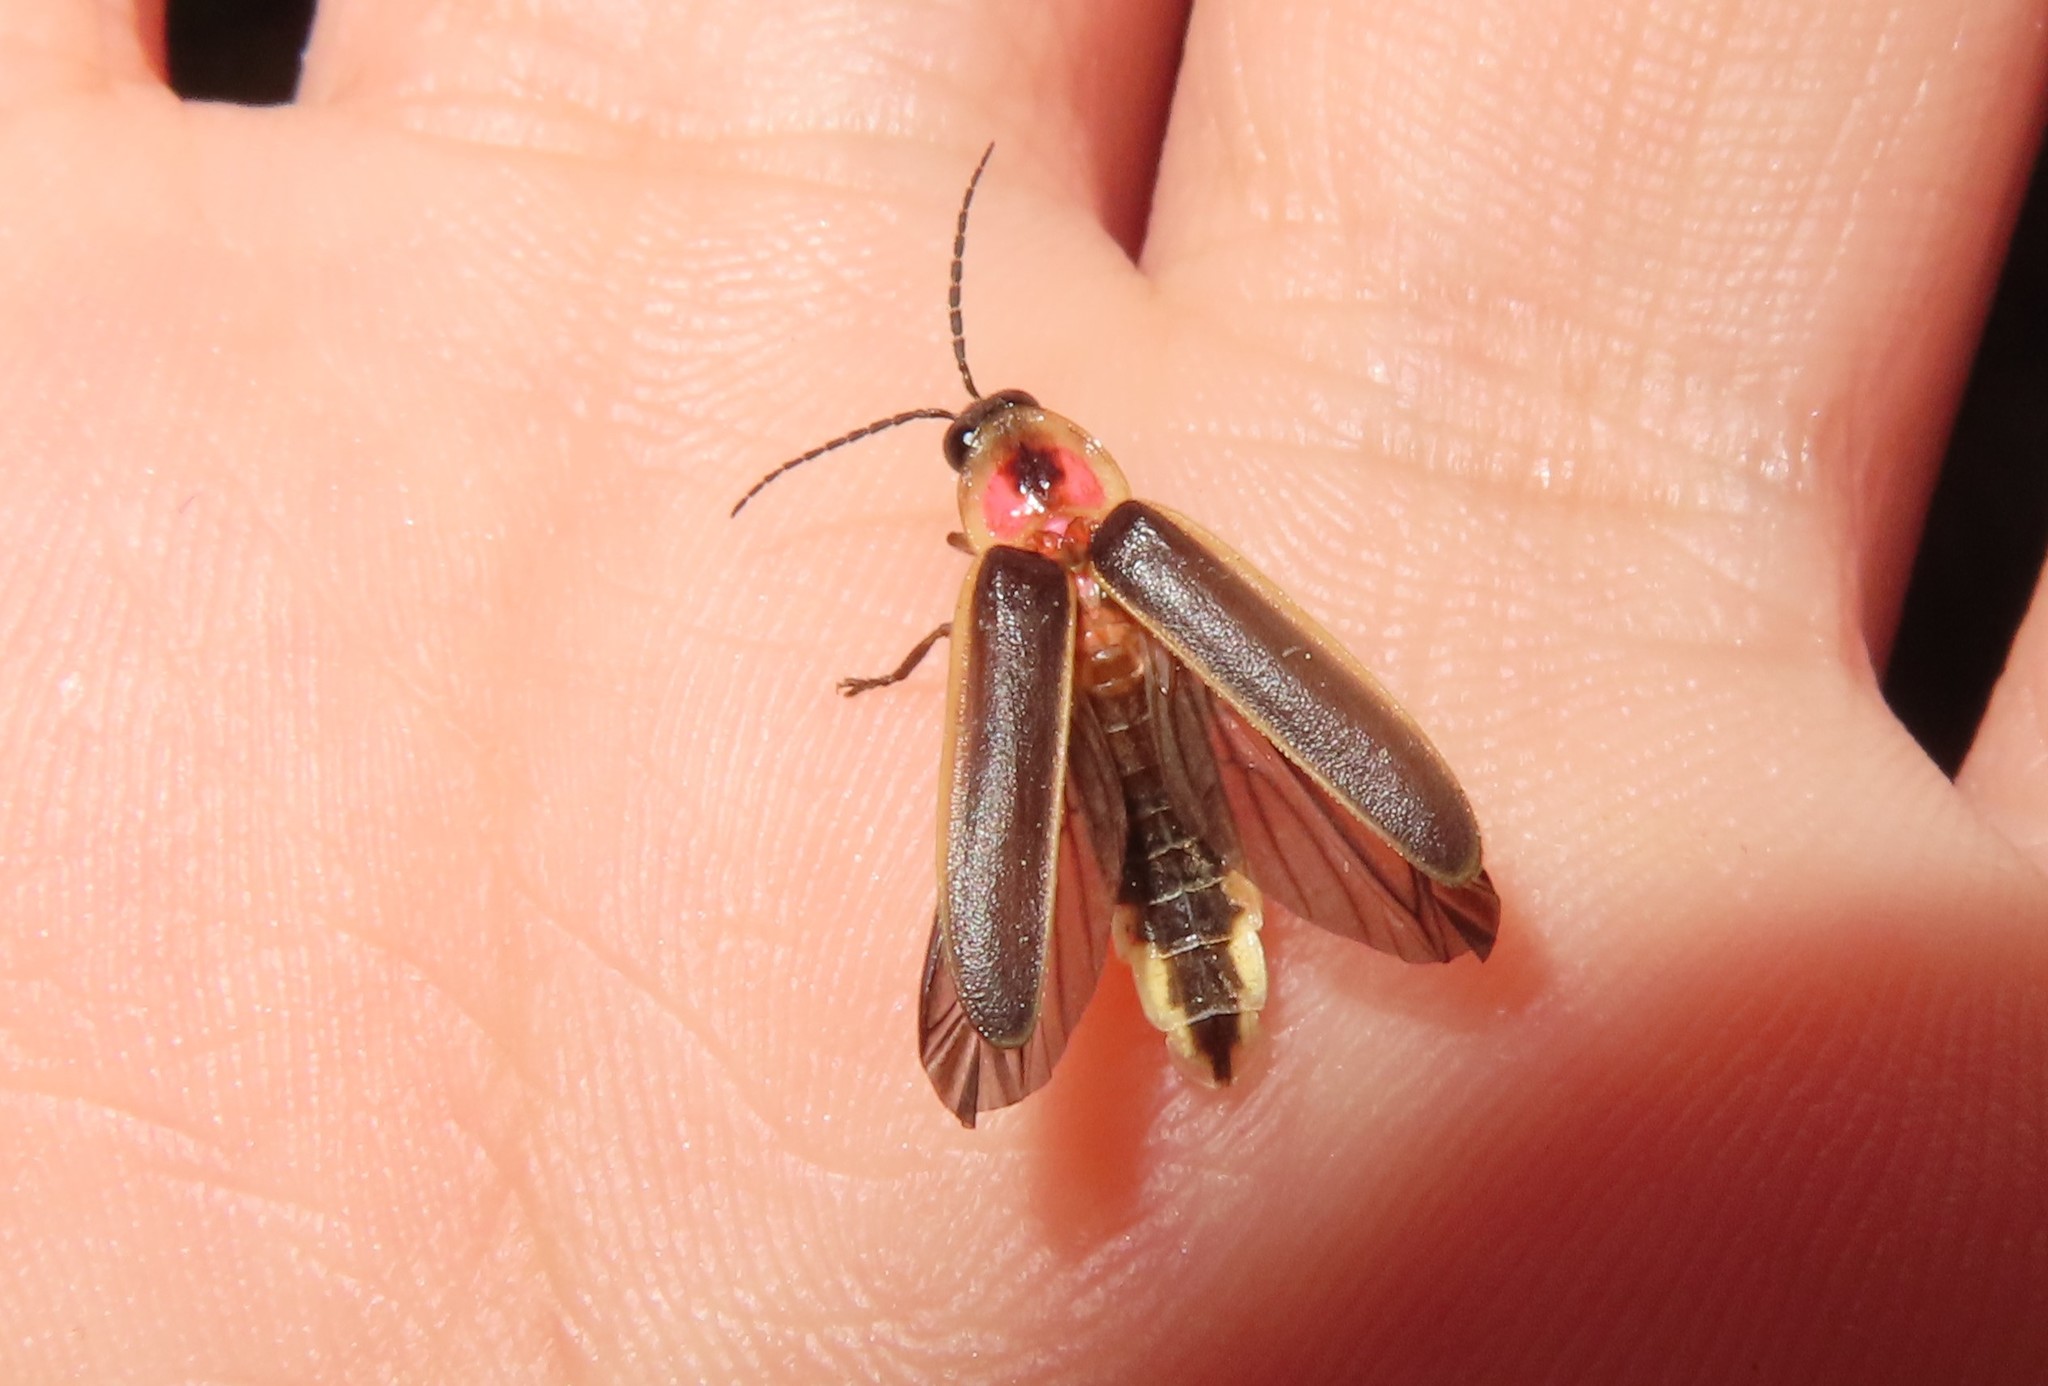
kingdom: Animalia
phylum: Arthropoda
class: Insecta
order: Coleoptera
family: Lampyridae
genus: Photinus
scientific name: Photinus pyralis
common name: Big dipper firefly
